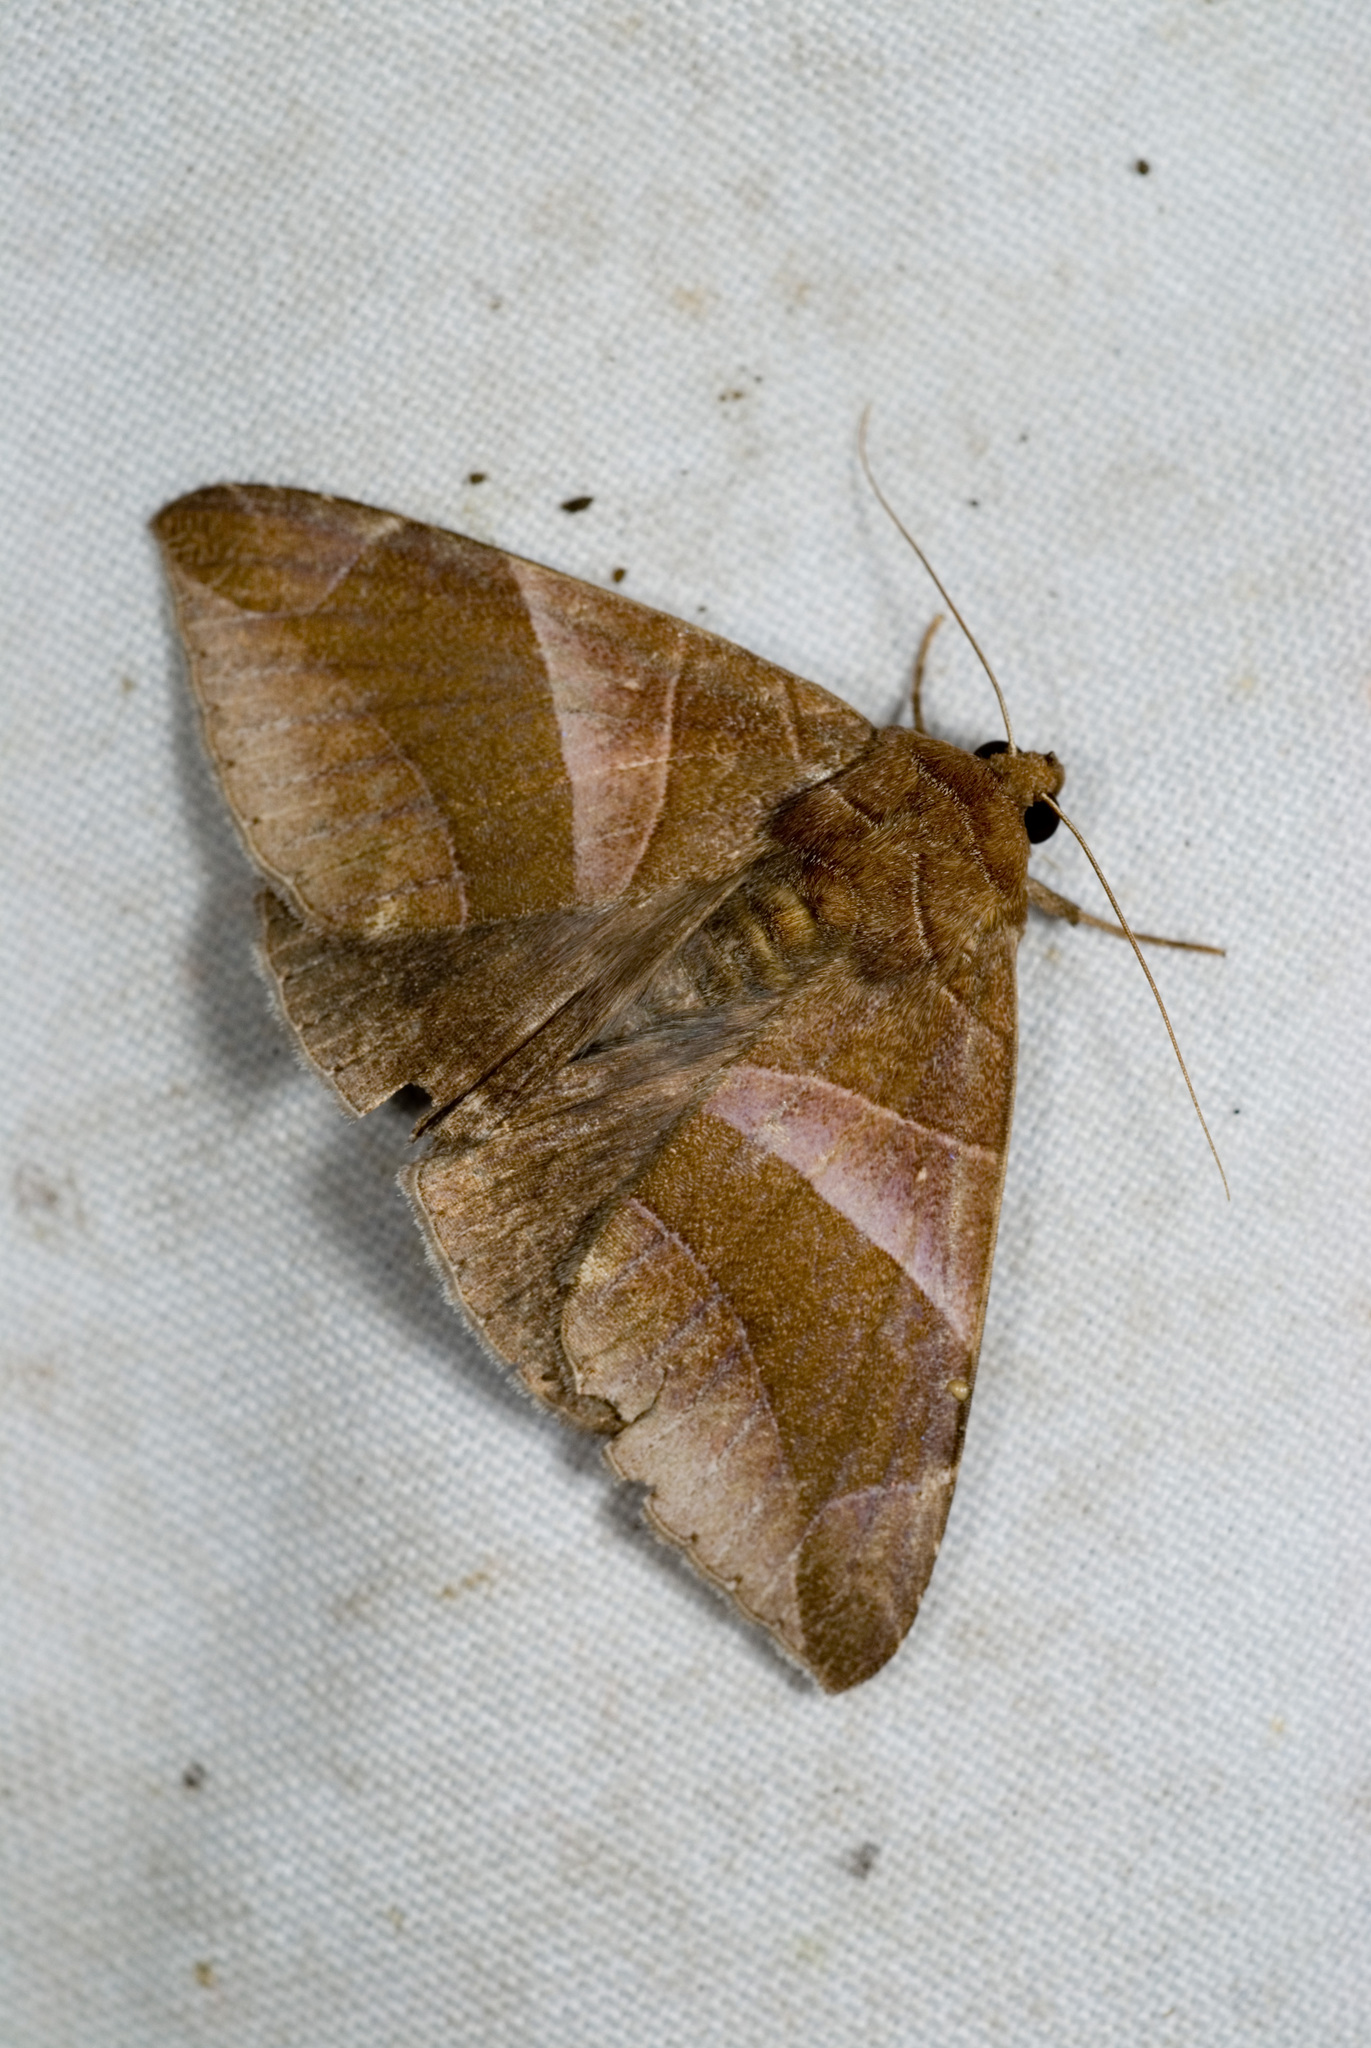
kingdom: Animalia
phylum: Arthropoda
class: Insecta
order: Lepidoptera
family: Erebidae
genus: Bastilla
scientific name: Bastilla acuta
